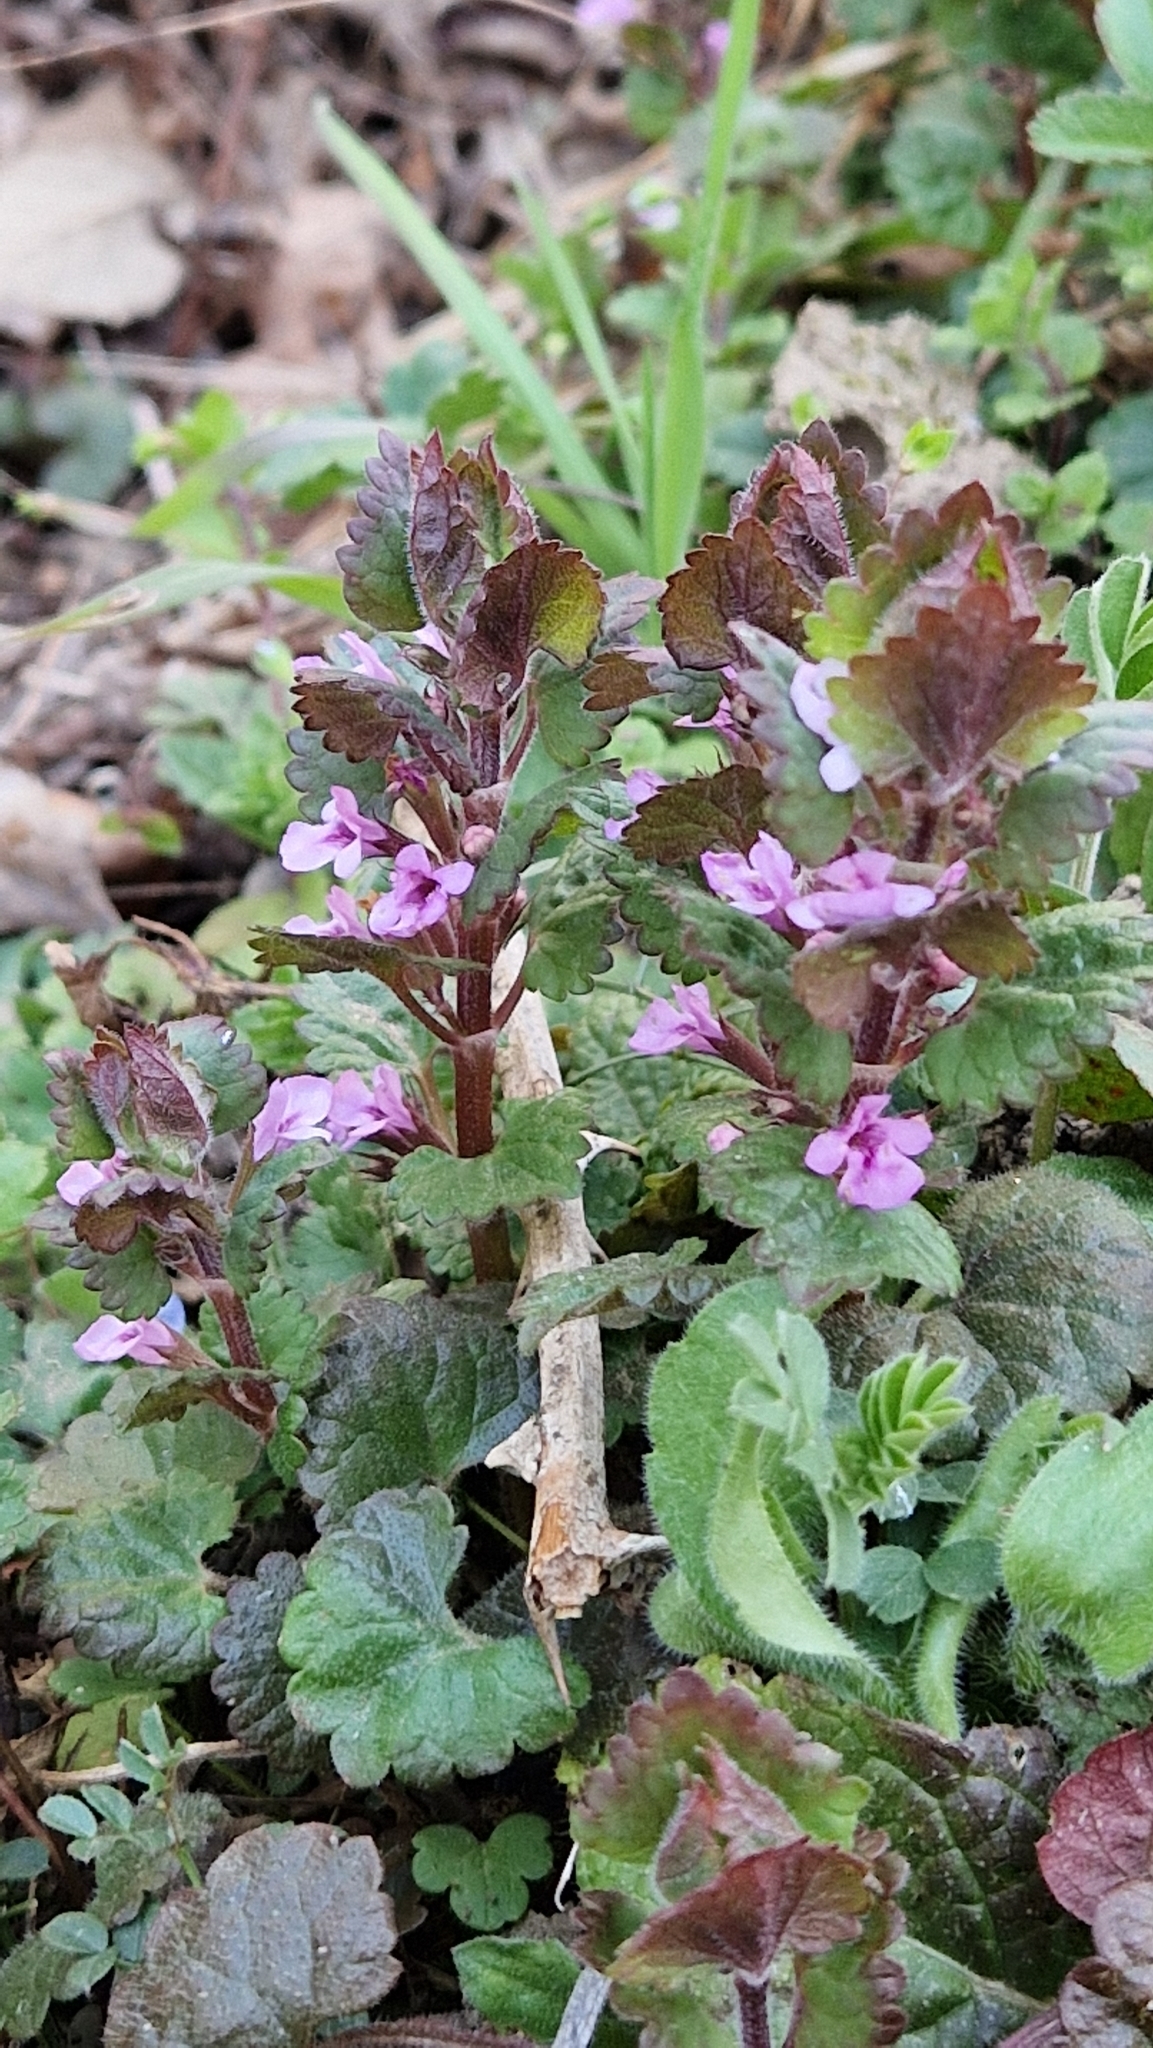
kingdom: Plantae
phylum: Tracheophyta
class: Magnoliopsida
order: Lamiales
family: Lamiaceae
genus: Glechoma
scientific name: Glechoma hederacea
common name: Ground ivy
